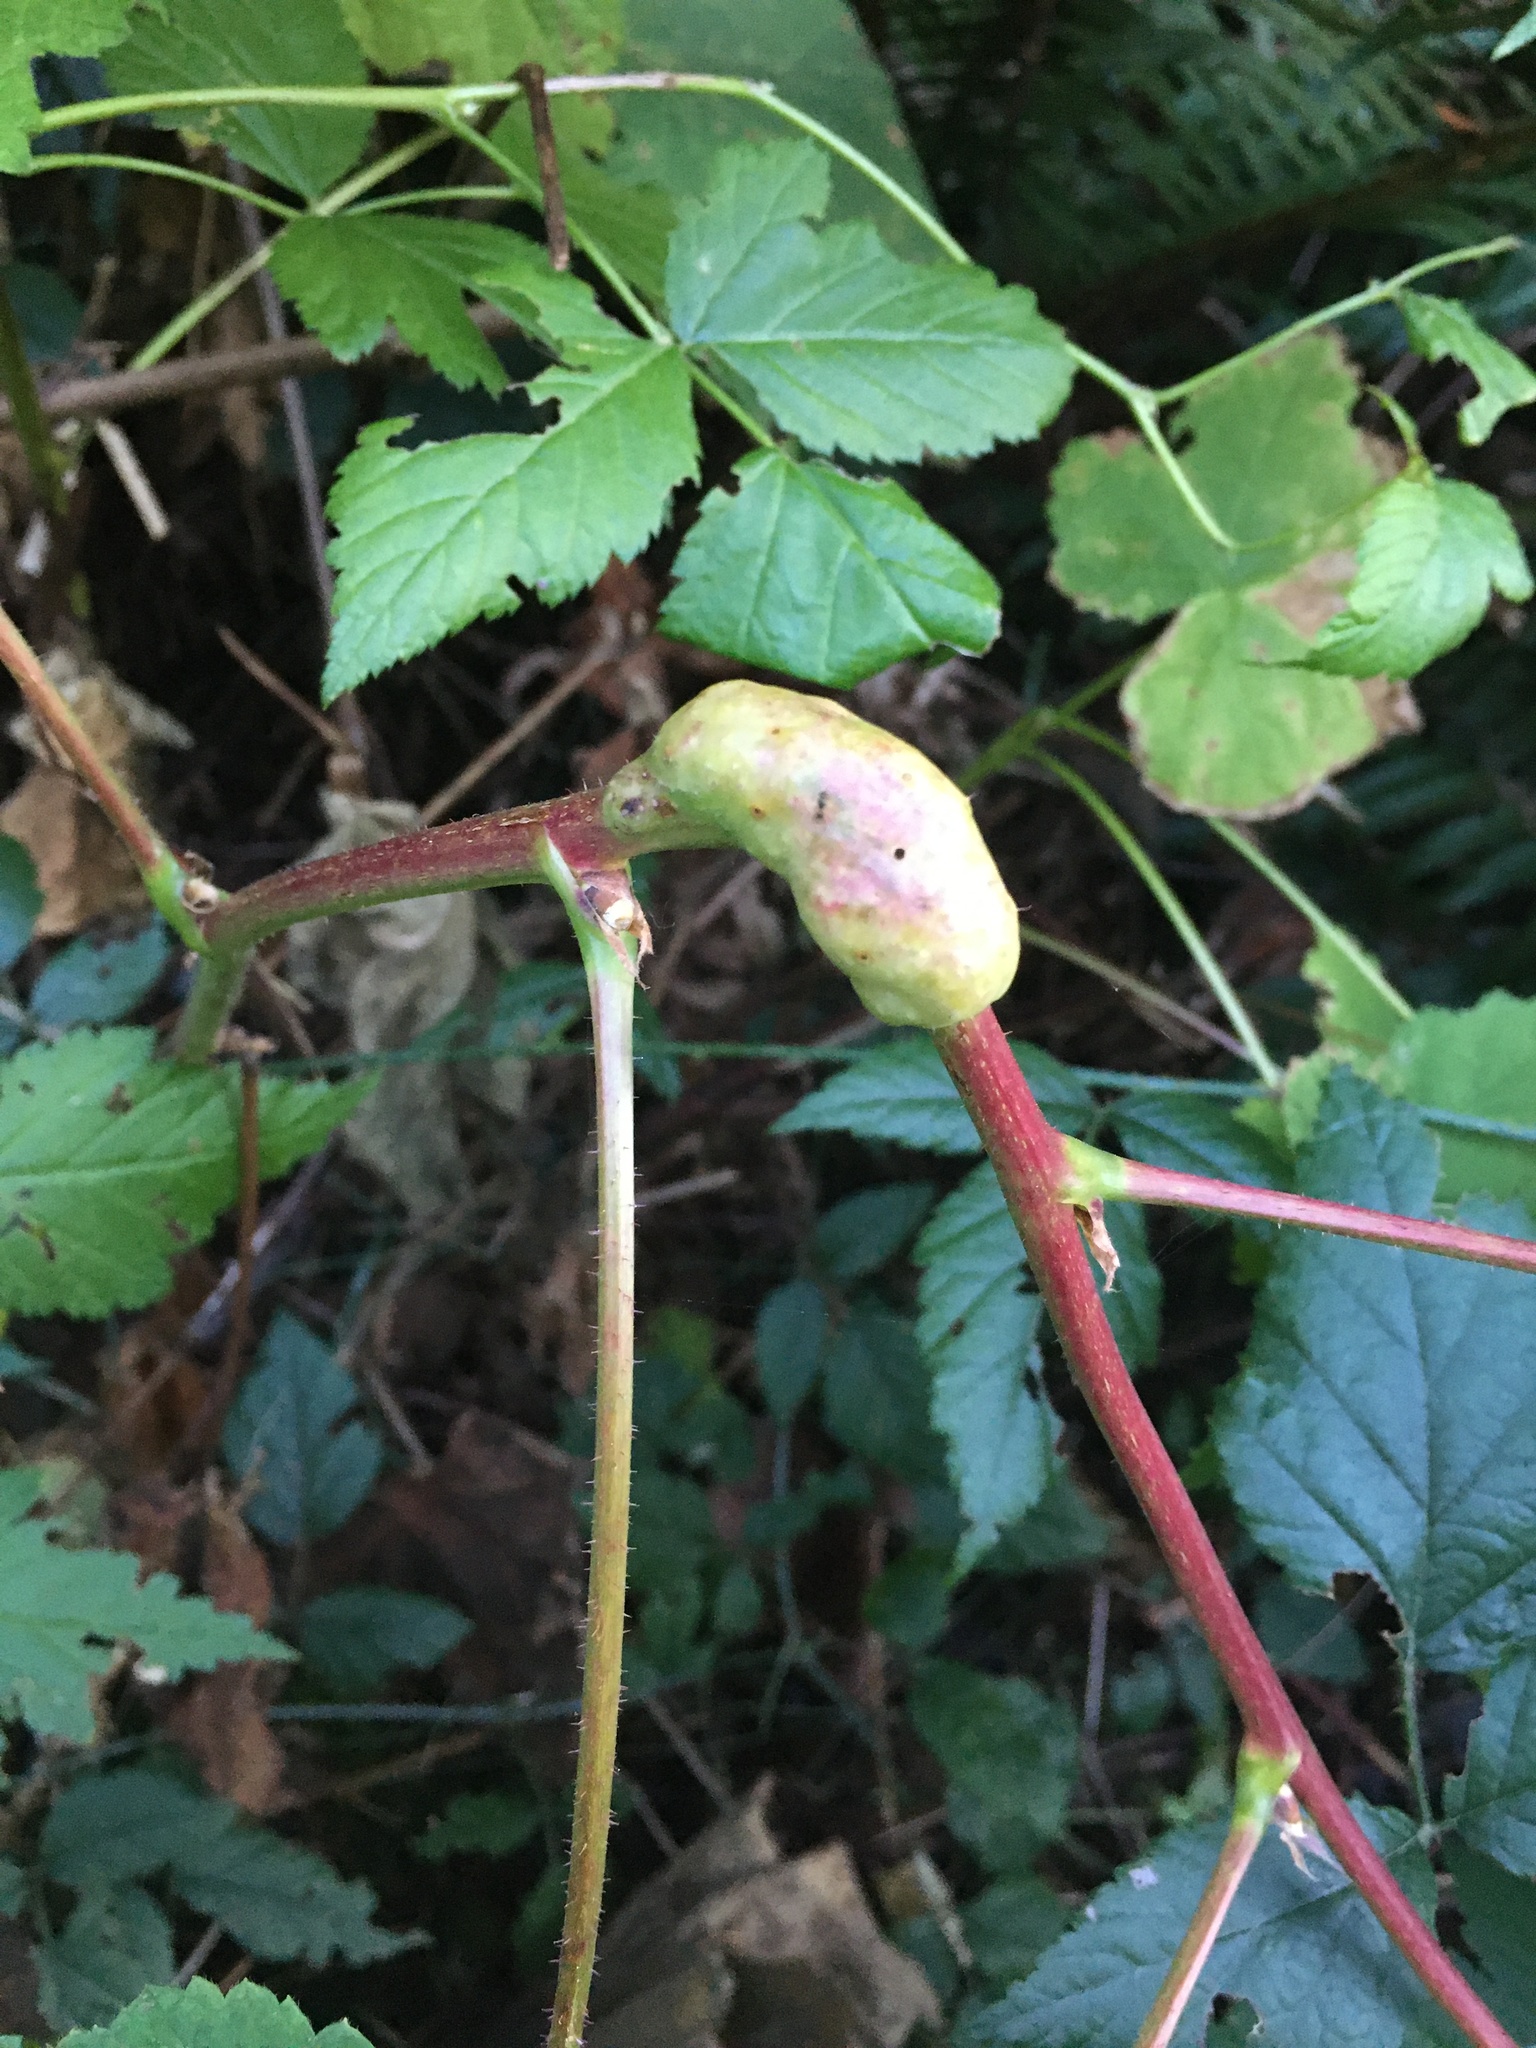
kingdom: Animalia
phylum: Arthropoda
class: Insecta
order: Hymenoptera
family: Cynipidae
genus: Diastrophus
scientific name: Diastrophus
